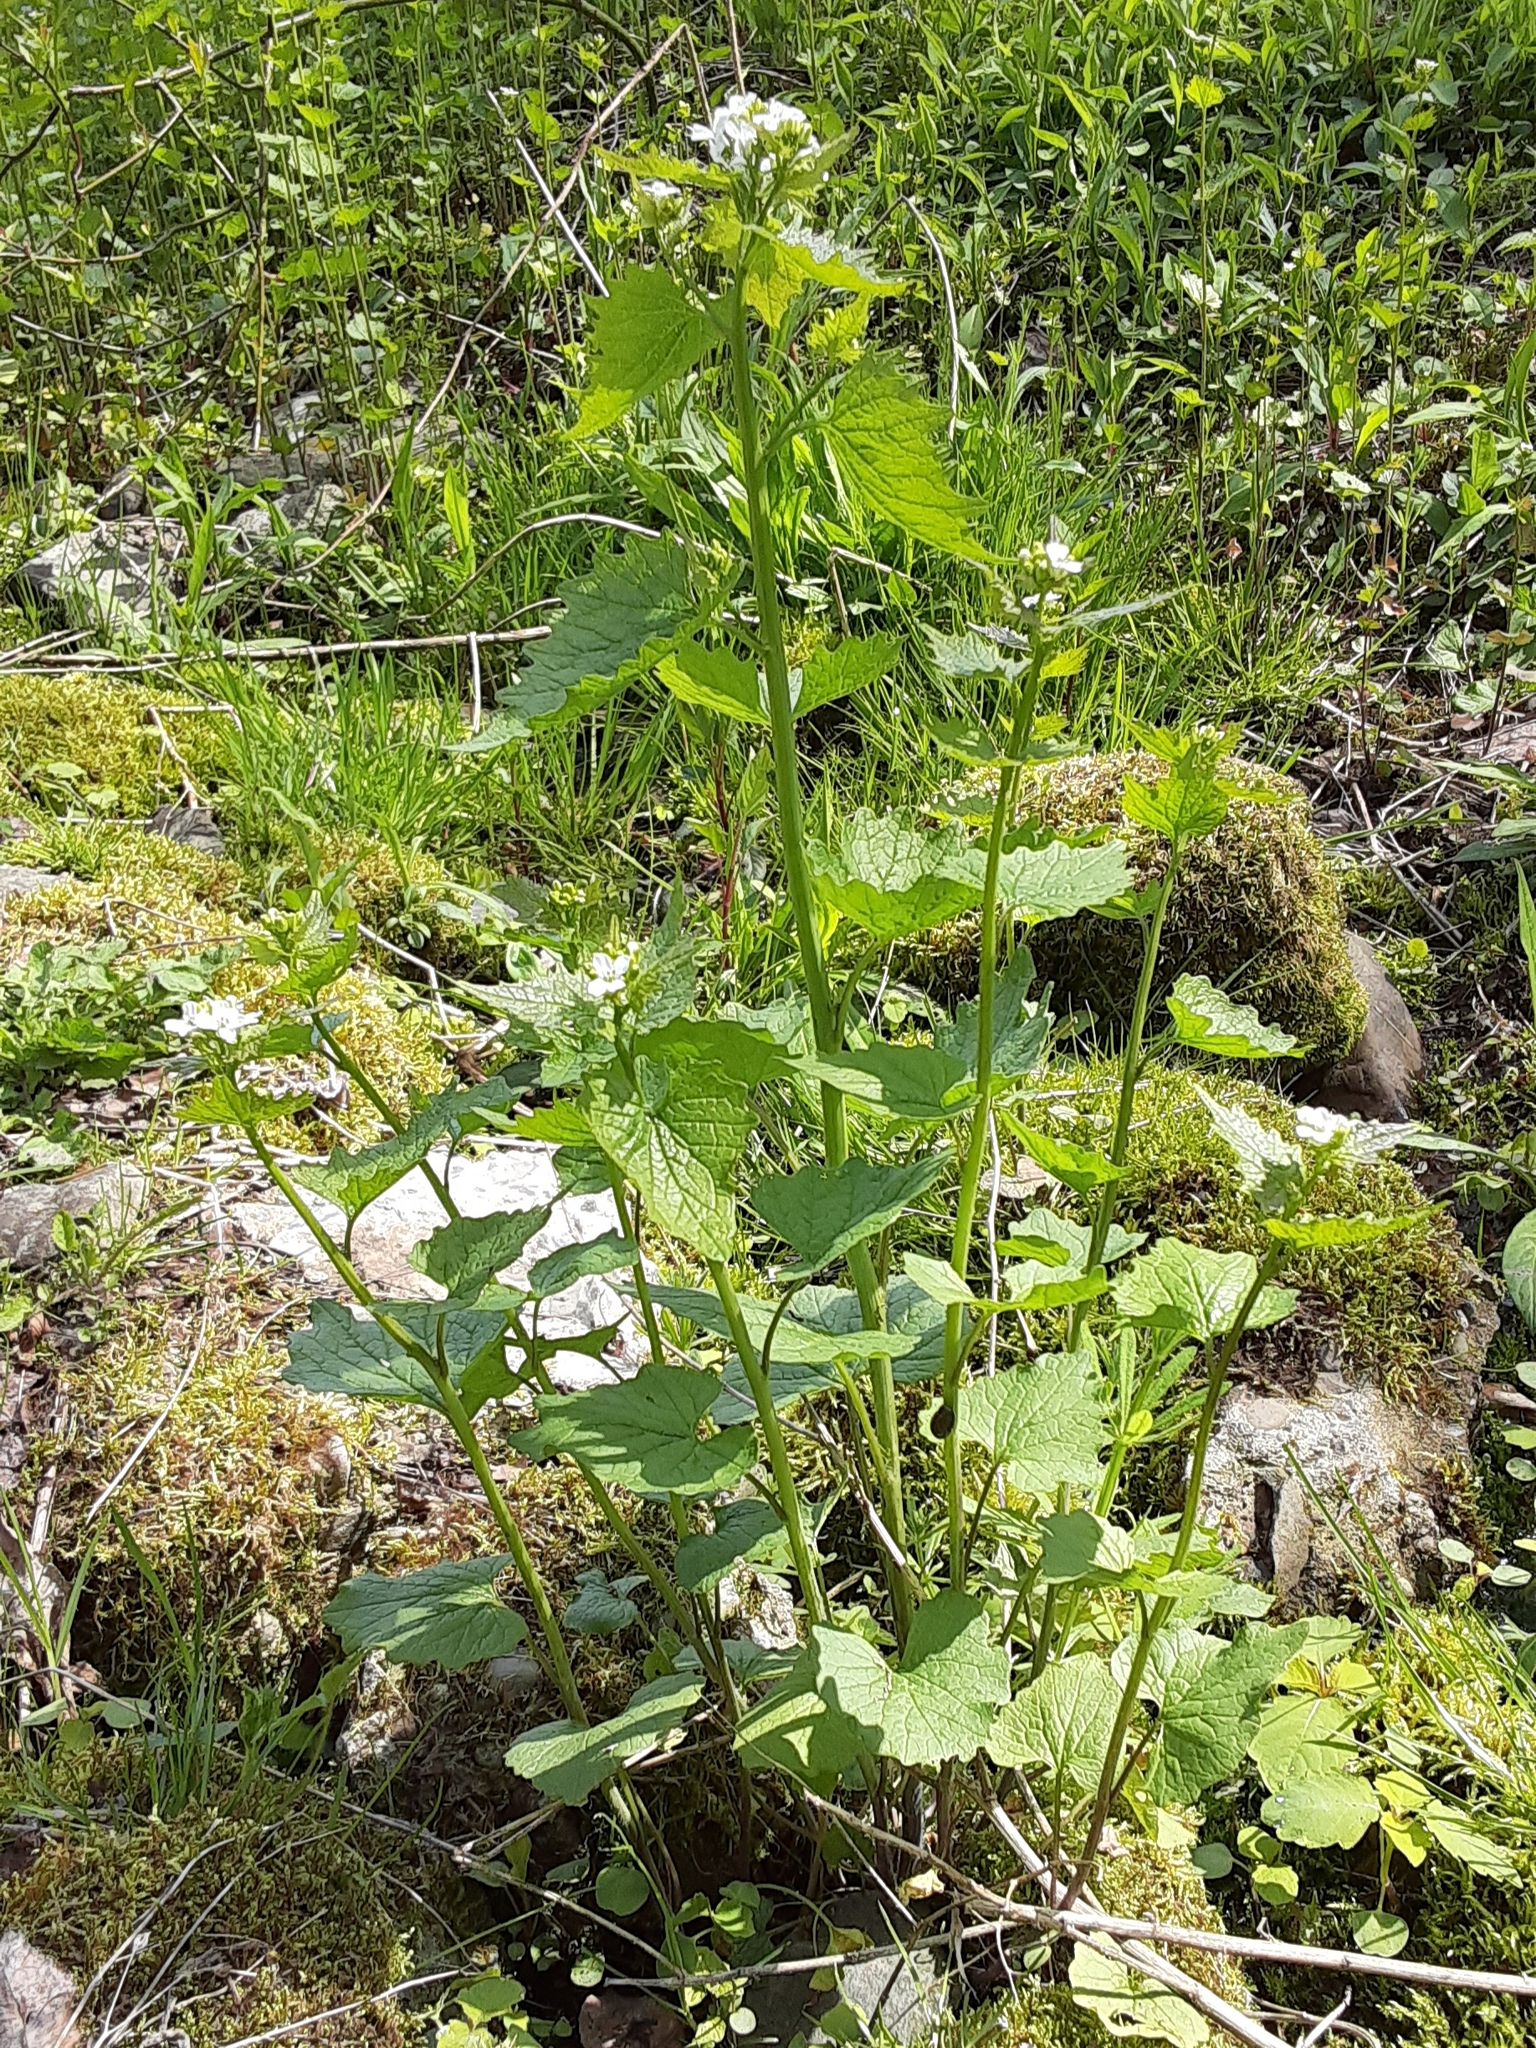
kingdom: Plantae
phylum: Tracheophyta
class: Magnoliopsida
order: Brassicales
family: Brassicaceae
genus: Alliaria
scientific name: Alliaria petiolata
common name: Garlic mustard
